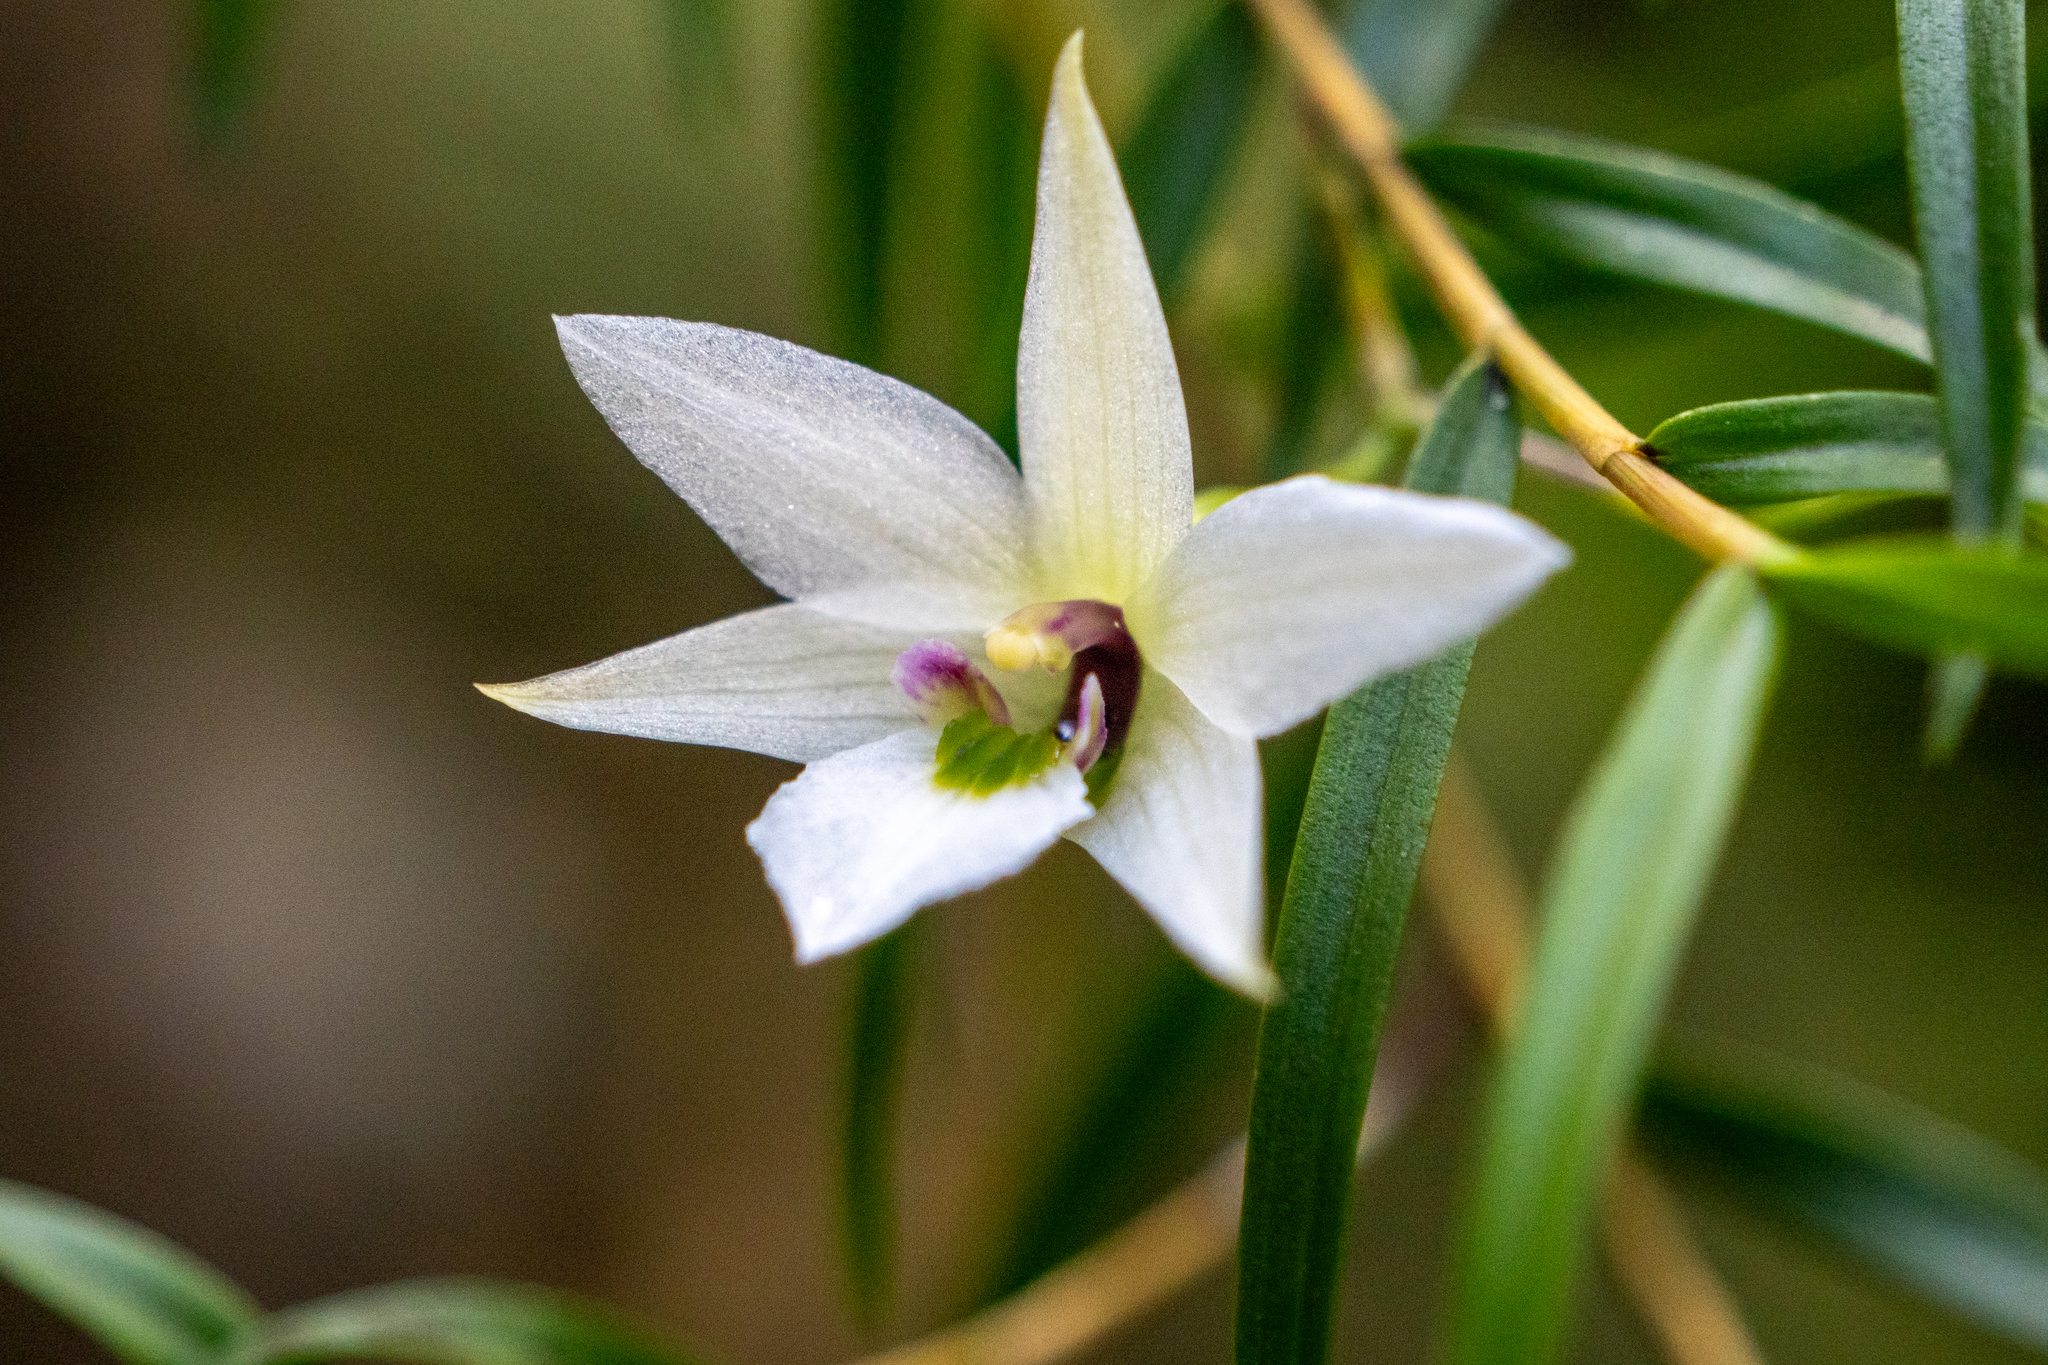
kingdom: Plantae
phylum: Tracheophyta
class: Liliopsida
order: Asparagales
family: Orchidaceae
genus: Dendrobium
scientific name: Dendrobium cunninghamii
